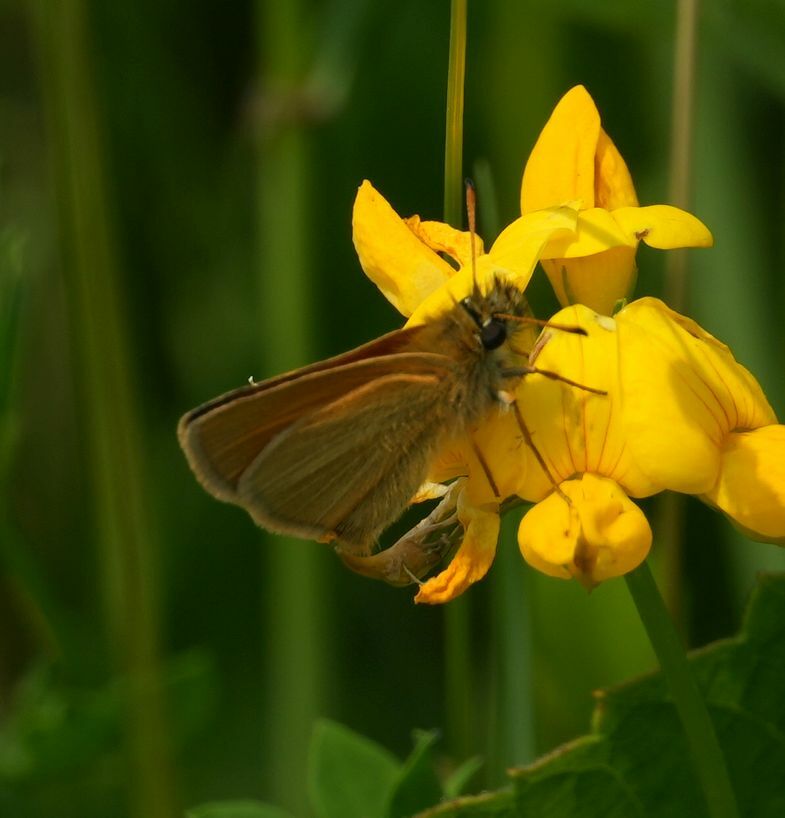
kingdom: Animalia
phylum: Arthropoda
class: Insecta
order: Lepidoptera
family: Hesperiidae
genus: Thymelicus
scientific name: Thymelicus lineola
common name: Essex skipper
